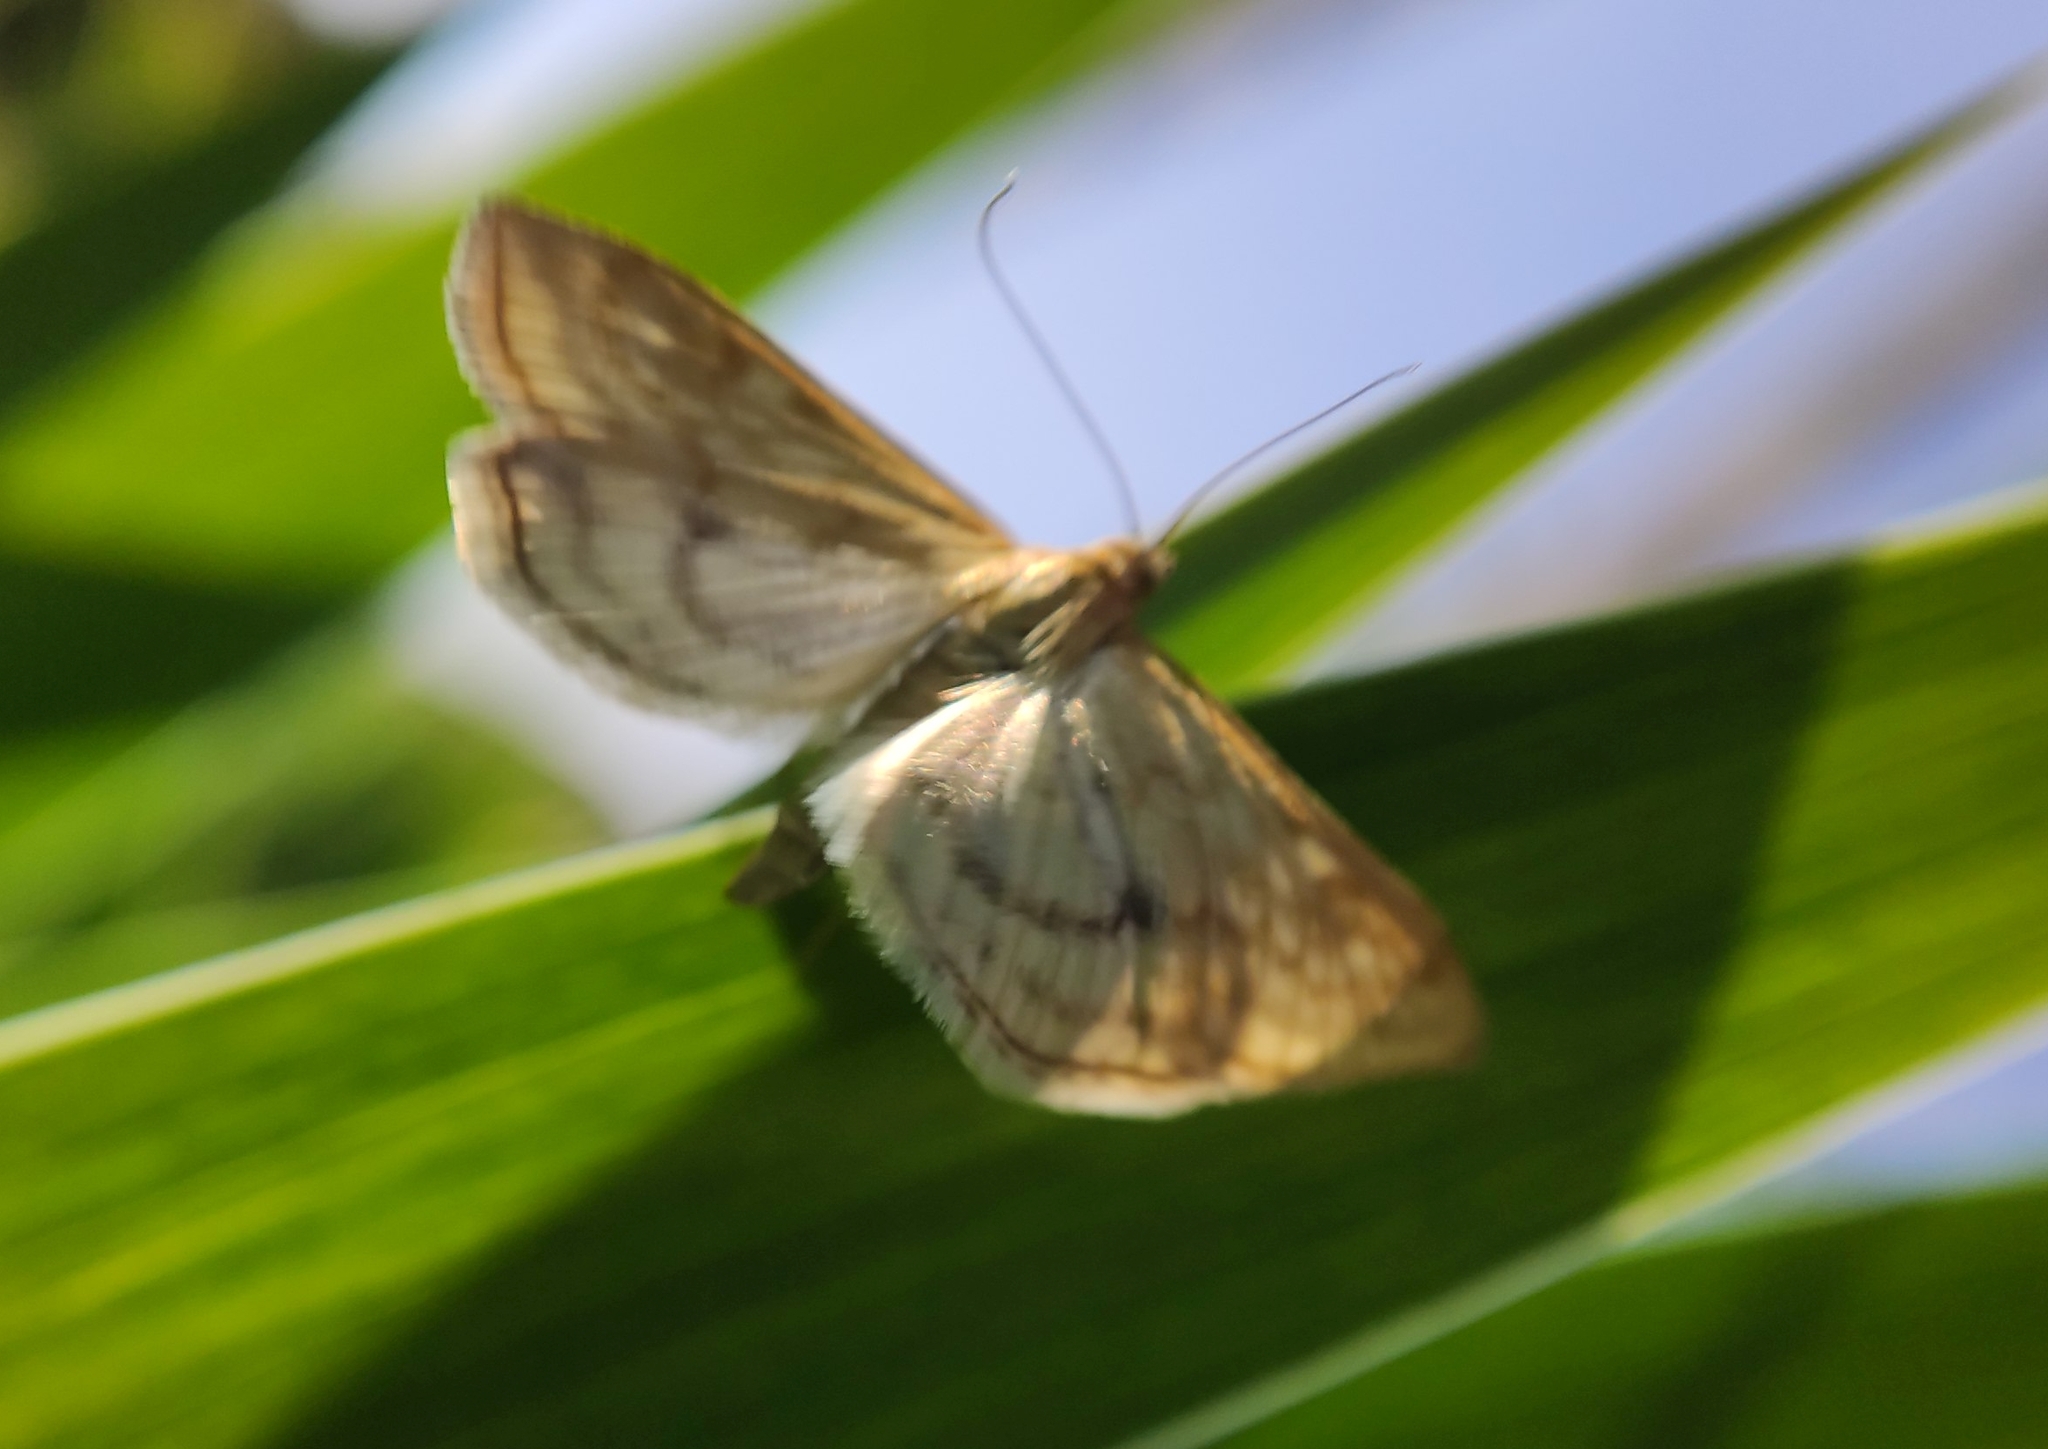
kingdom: Animalia
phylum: Arthropoda
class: Insecta
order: Lepidoptera
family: Crambidae
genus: Sitochroa
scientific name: Sitochroa verticalis
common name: Lesser pearl
